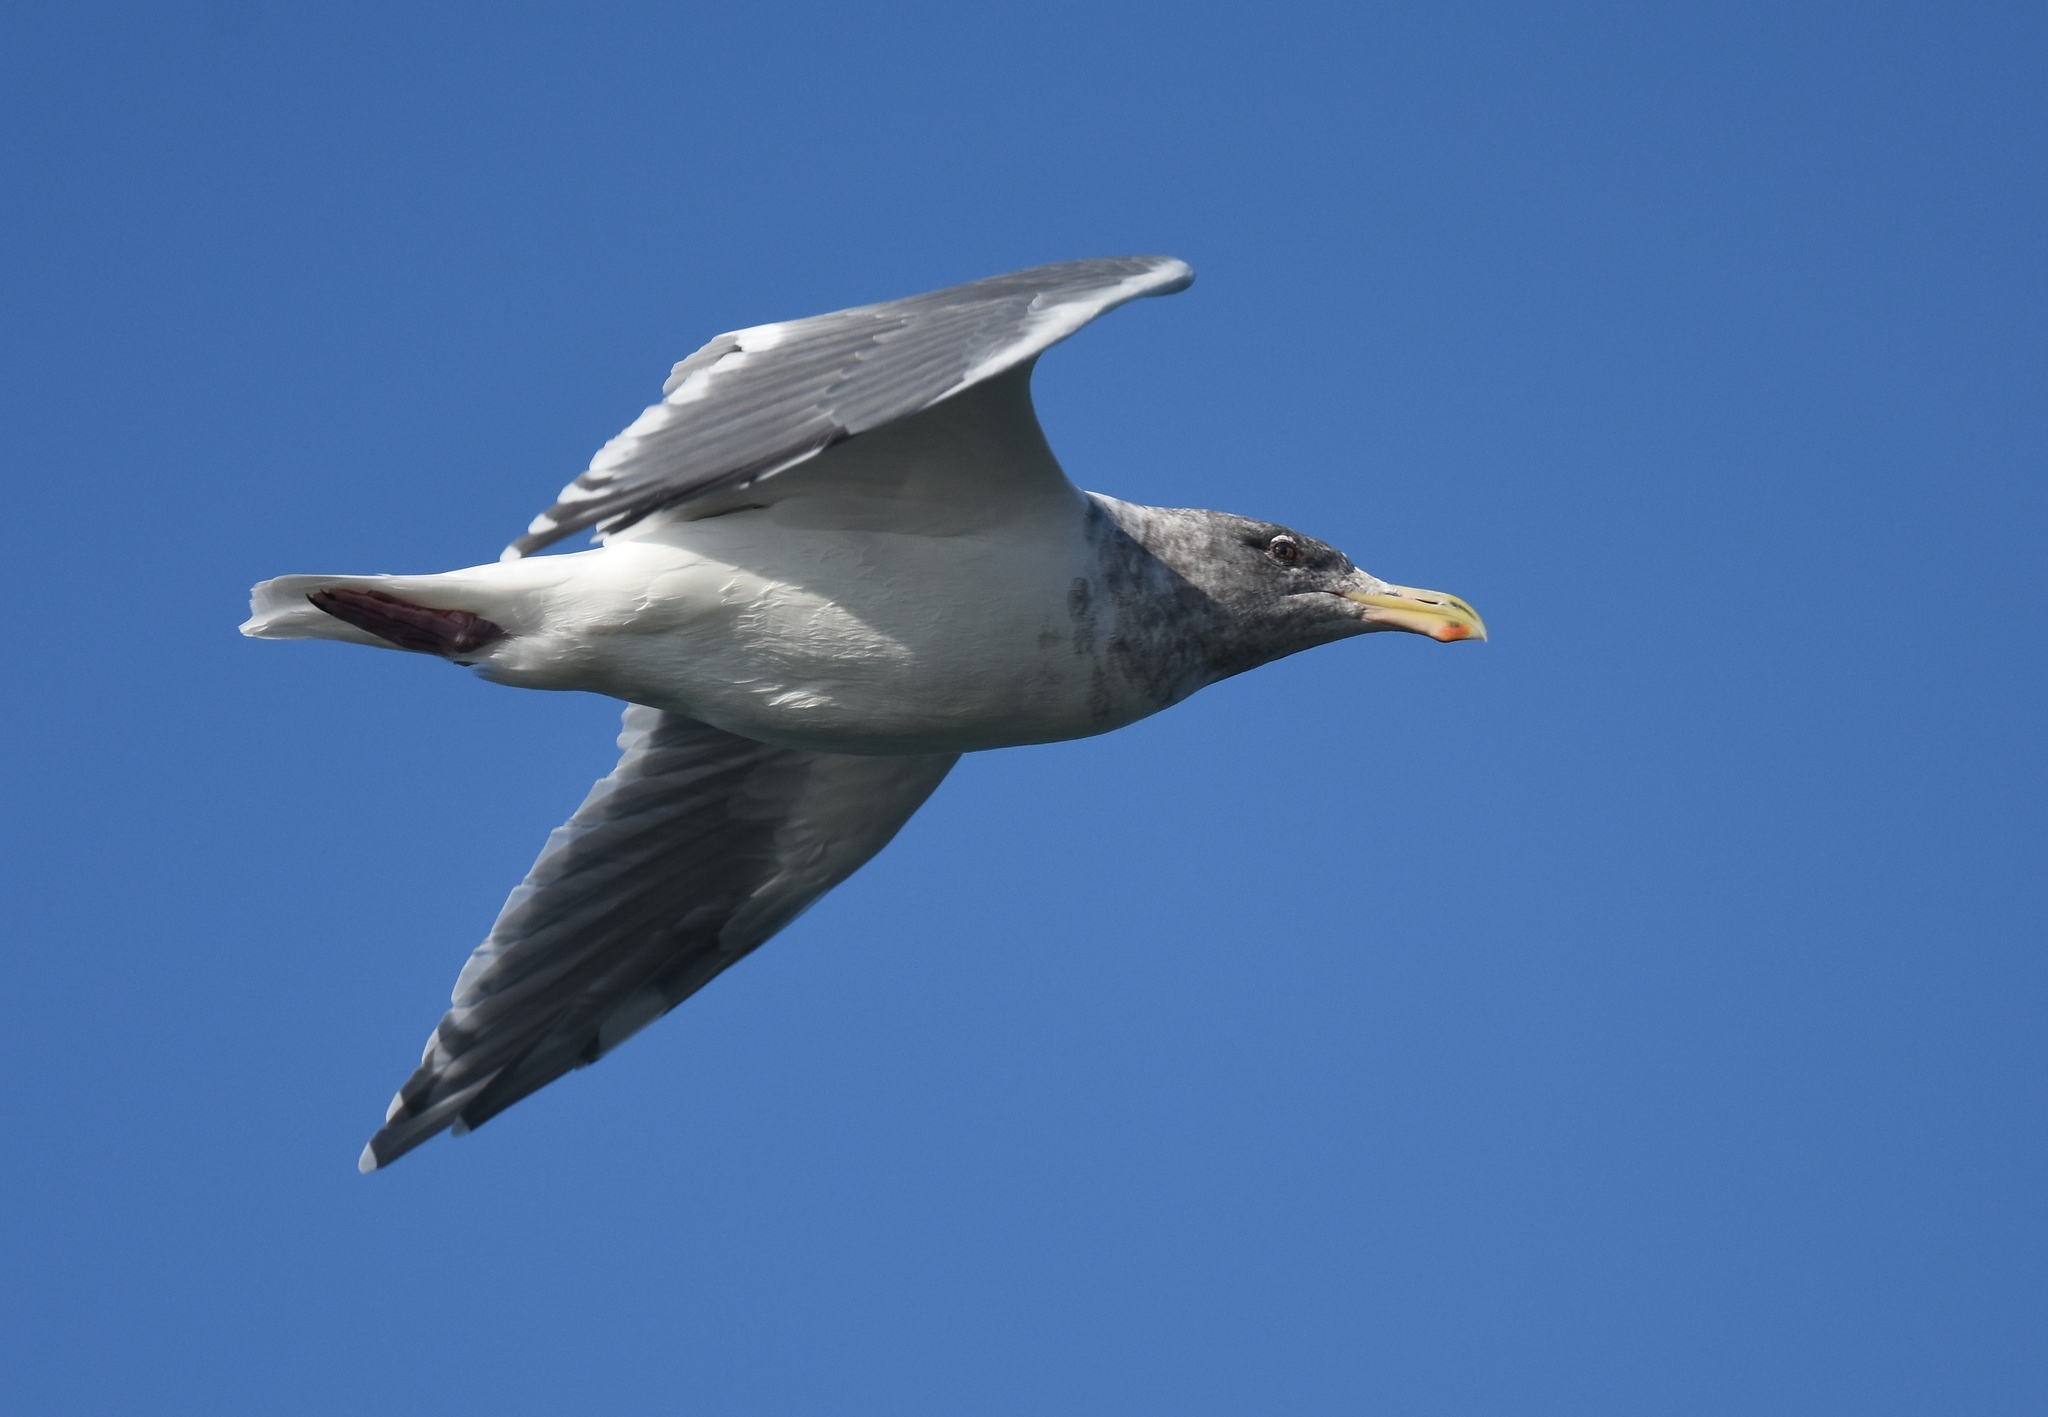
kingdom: Animalia
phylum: Chordata
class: Aves
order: Charadriiformes
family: Laridae
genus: Larus
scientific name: Larus glaucescens
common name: Glaucous-winged gull
